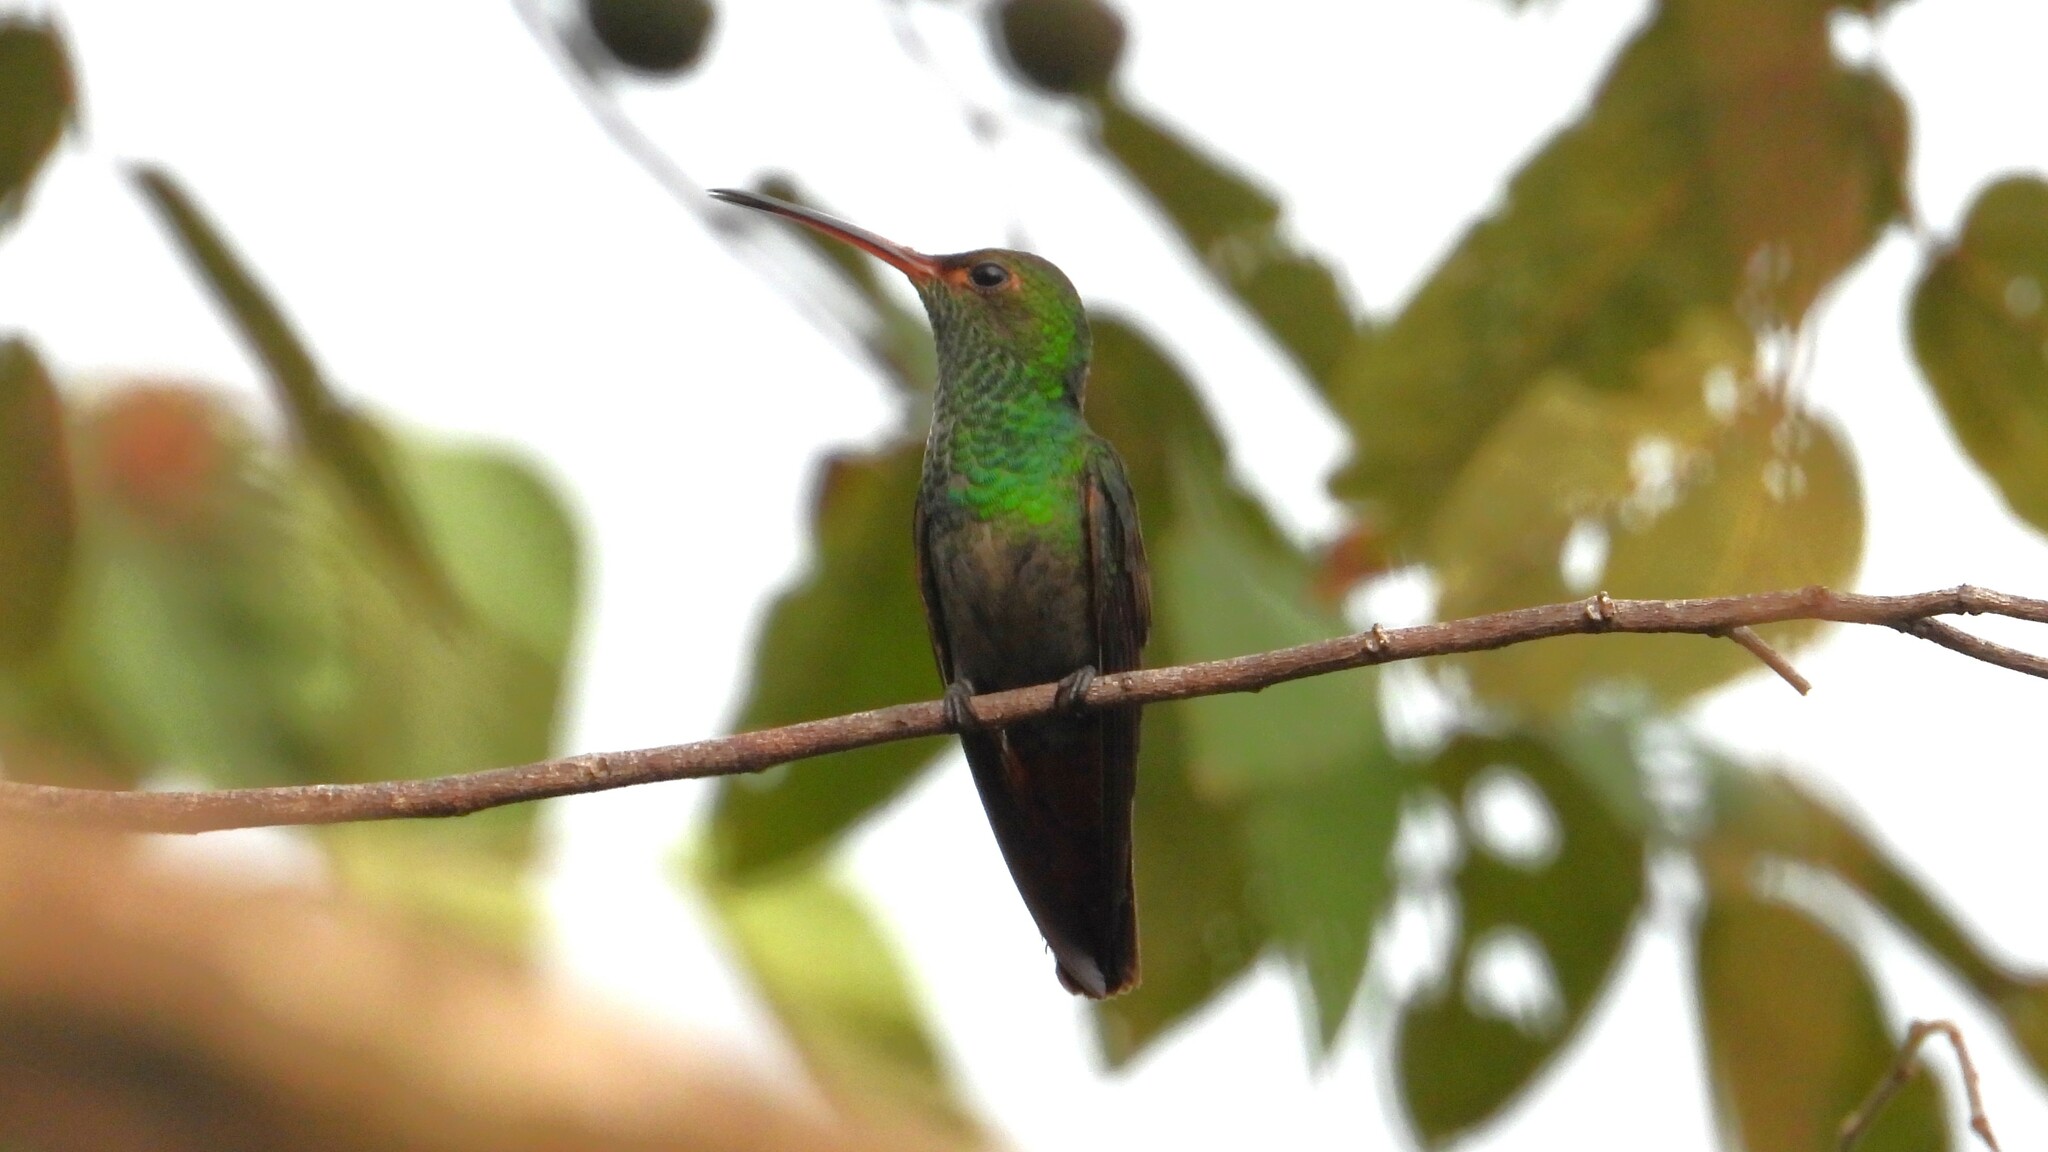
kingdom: Animalia
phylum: Chordata
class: Aves
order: Apodiformes
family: Trochilidae
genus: Saucerottia
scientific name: Saucerottia hoffmanni
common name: Blue-vented hummingbird
